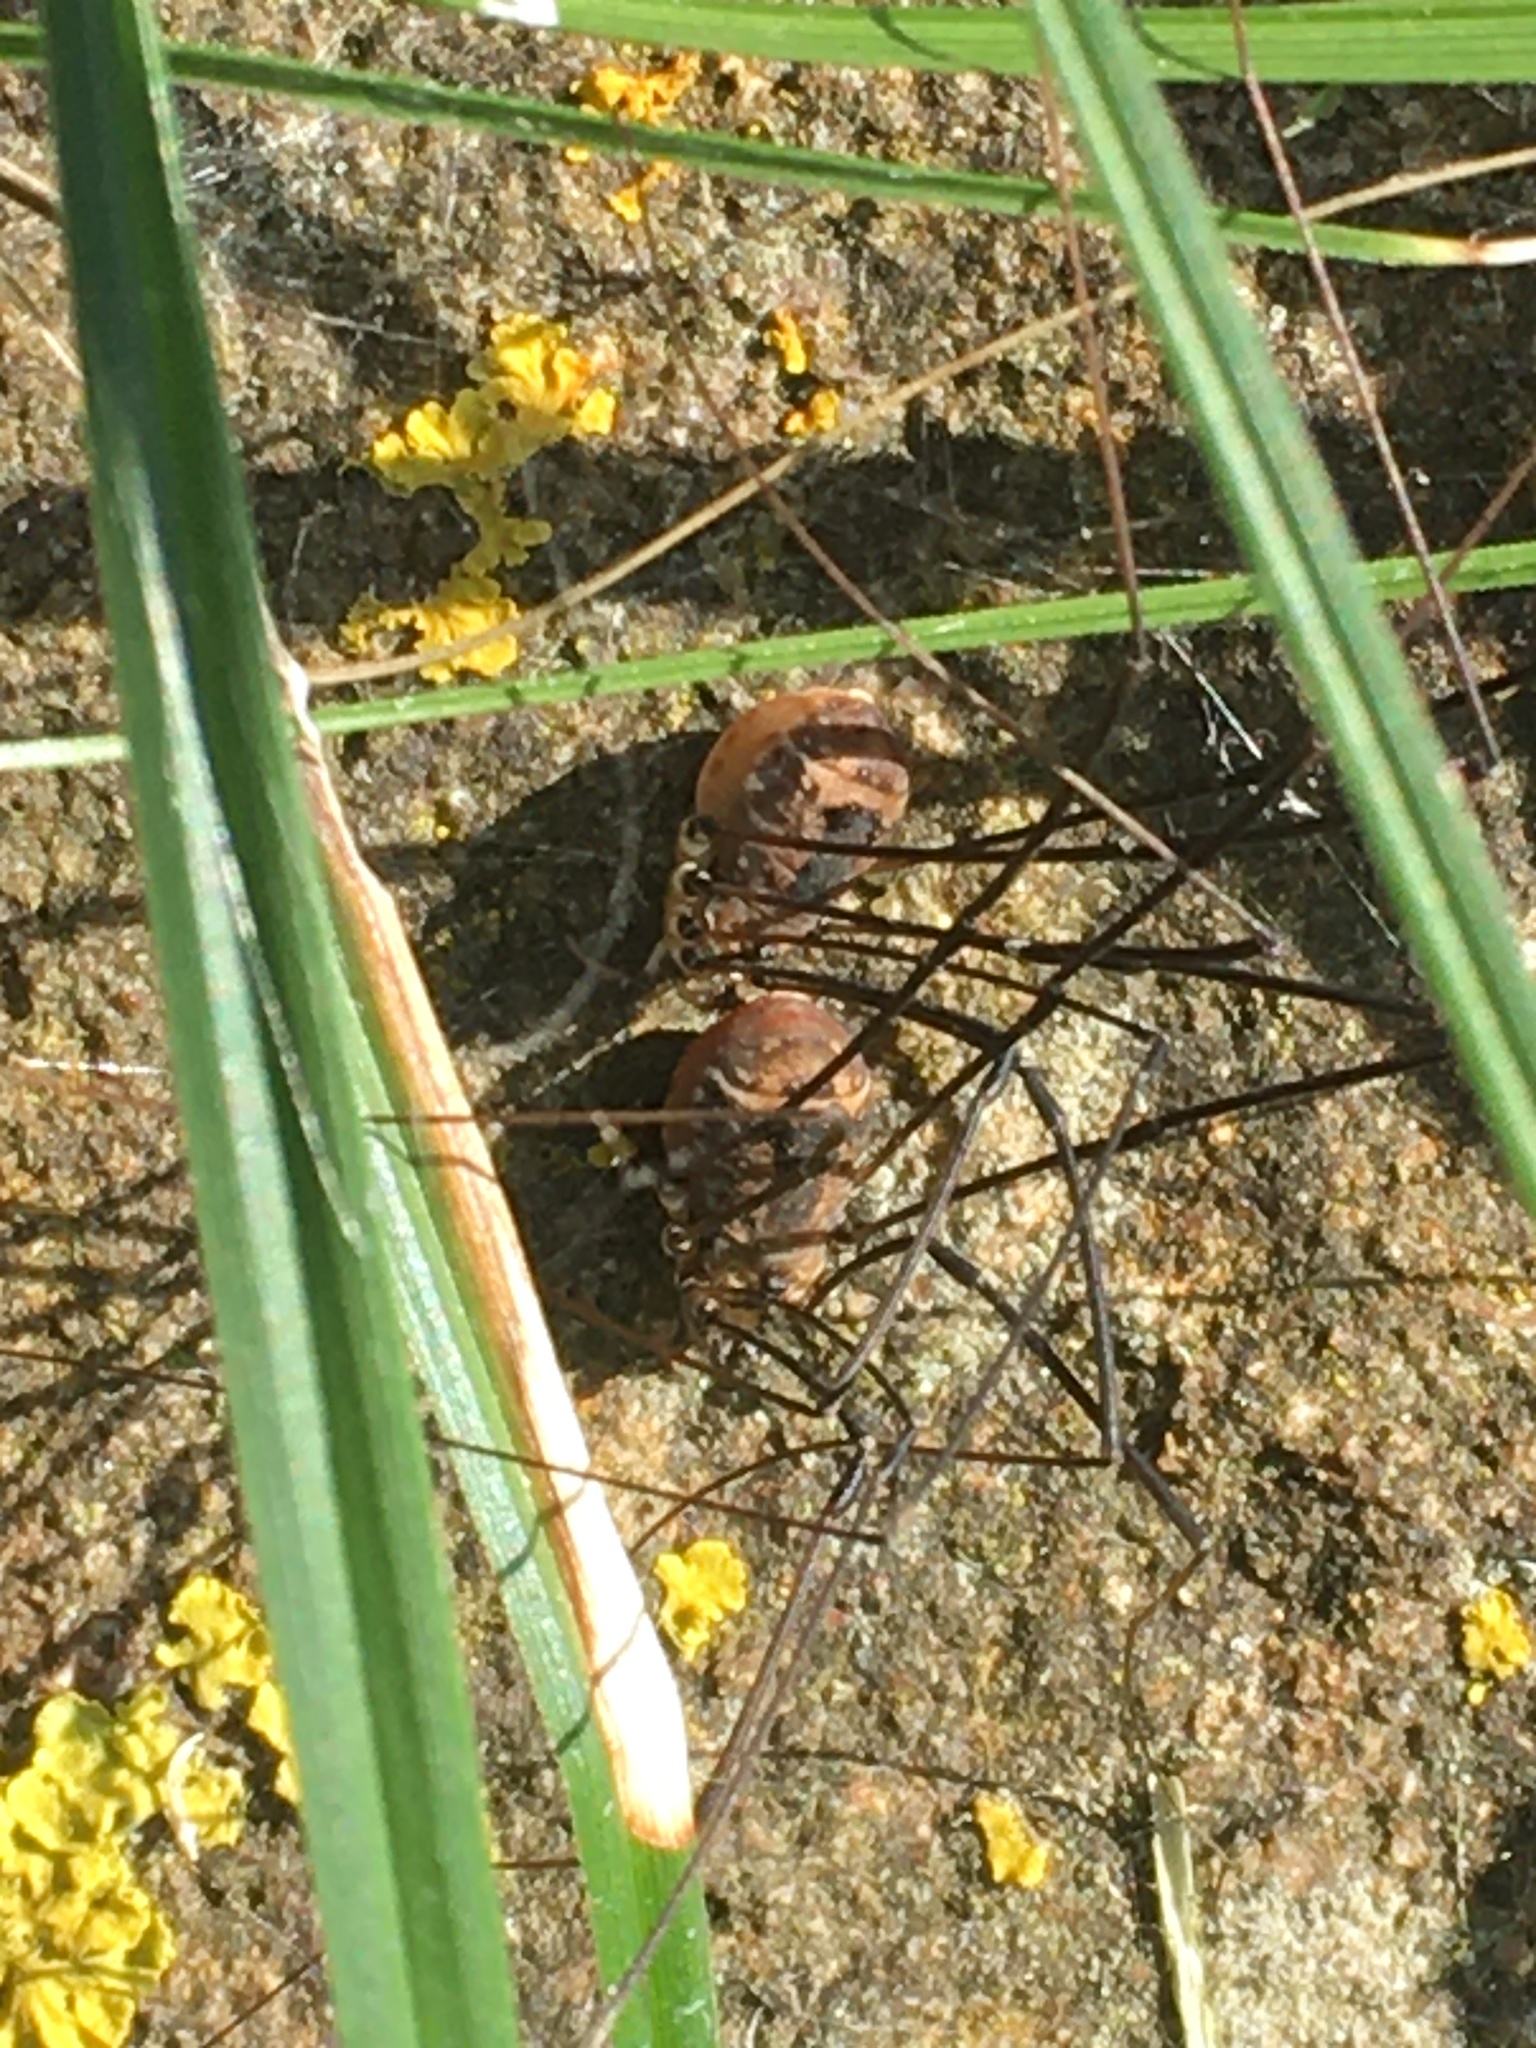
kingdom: Animalia
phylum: Arthropoda
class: Arachnida
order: Opiliones
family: Sclerosomatidae
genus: Leiobunum
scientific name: Leiobunum rotundum
